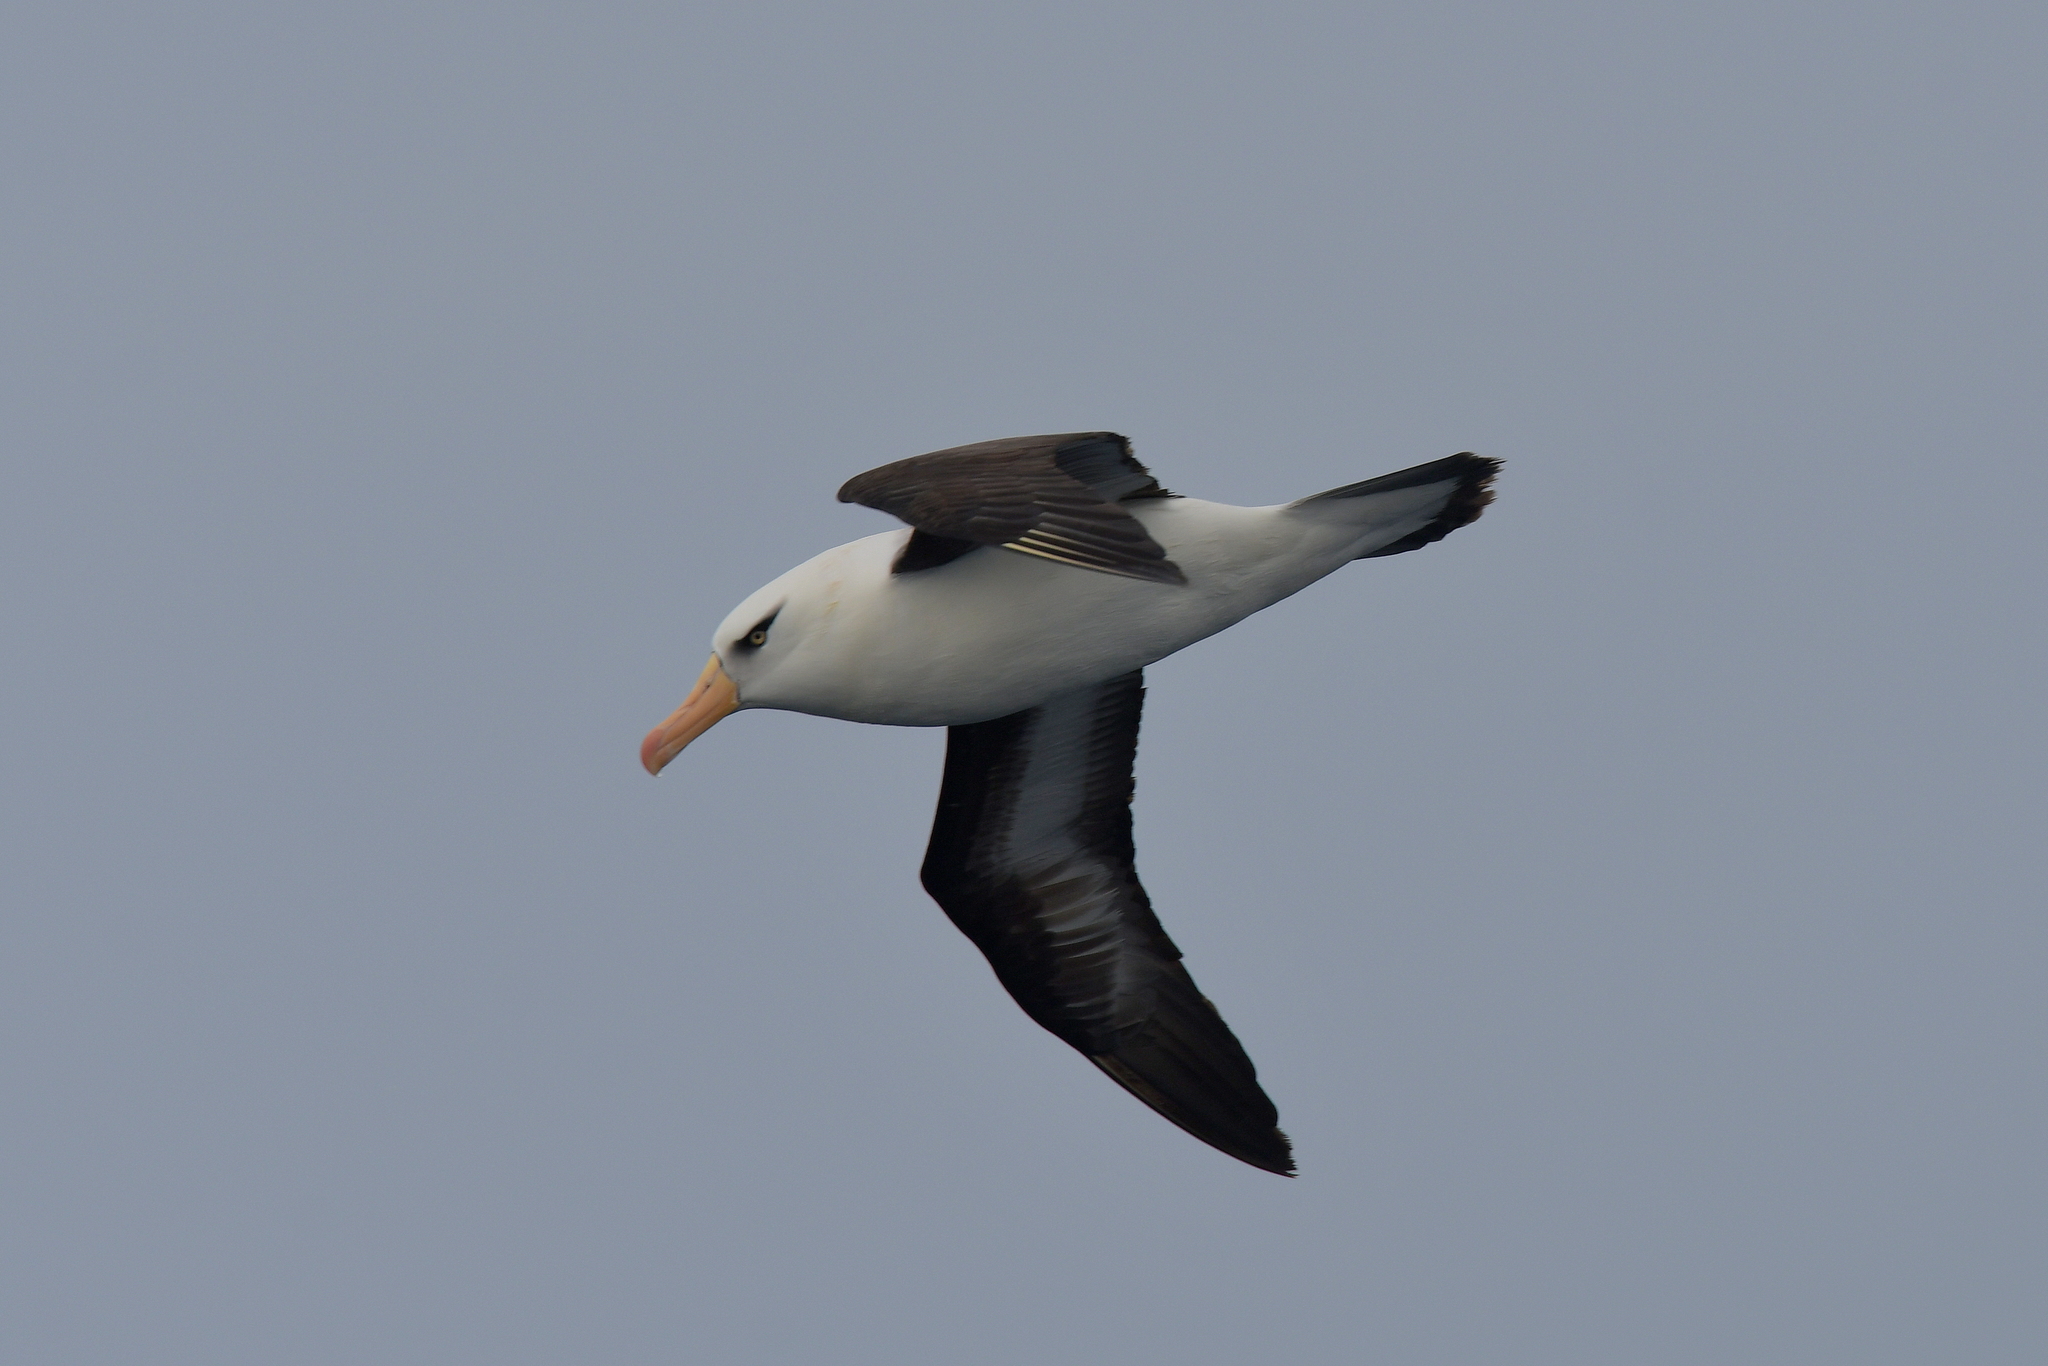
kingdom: Animalia
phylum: Chordata
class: Aves
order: Procellariiformes
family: Diomedeidae
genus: Thalassarche
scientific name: Thalassarche impavida
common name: Campbell albatross
